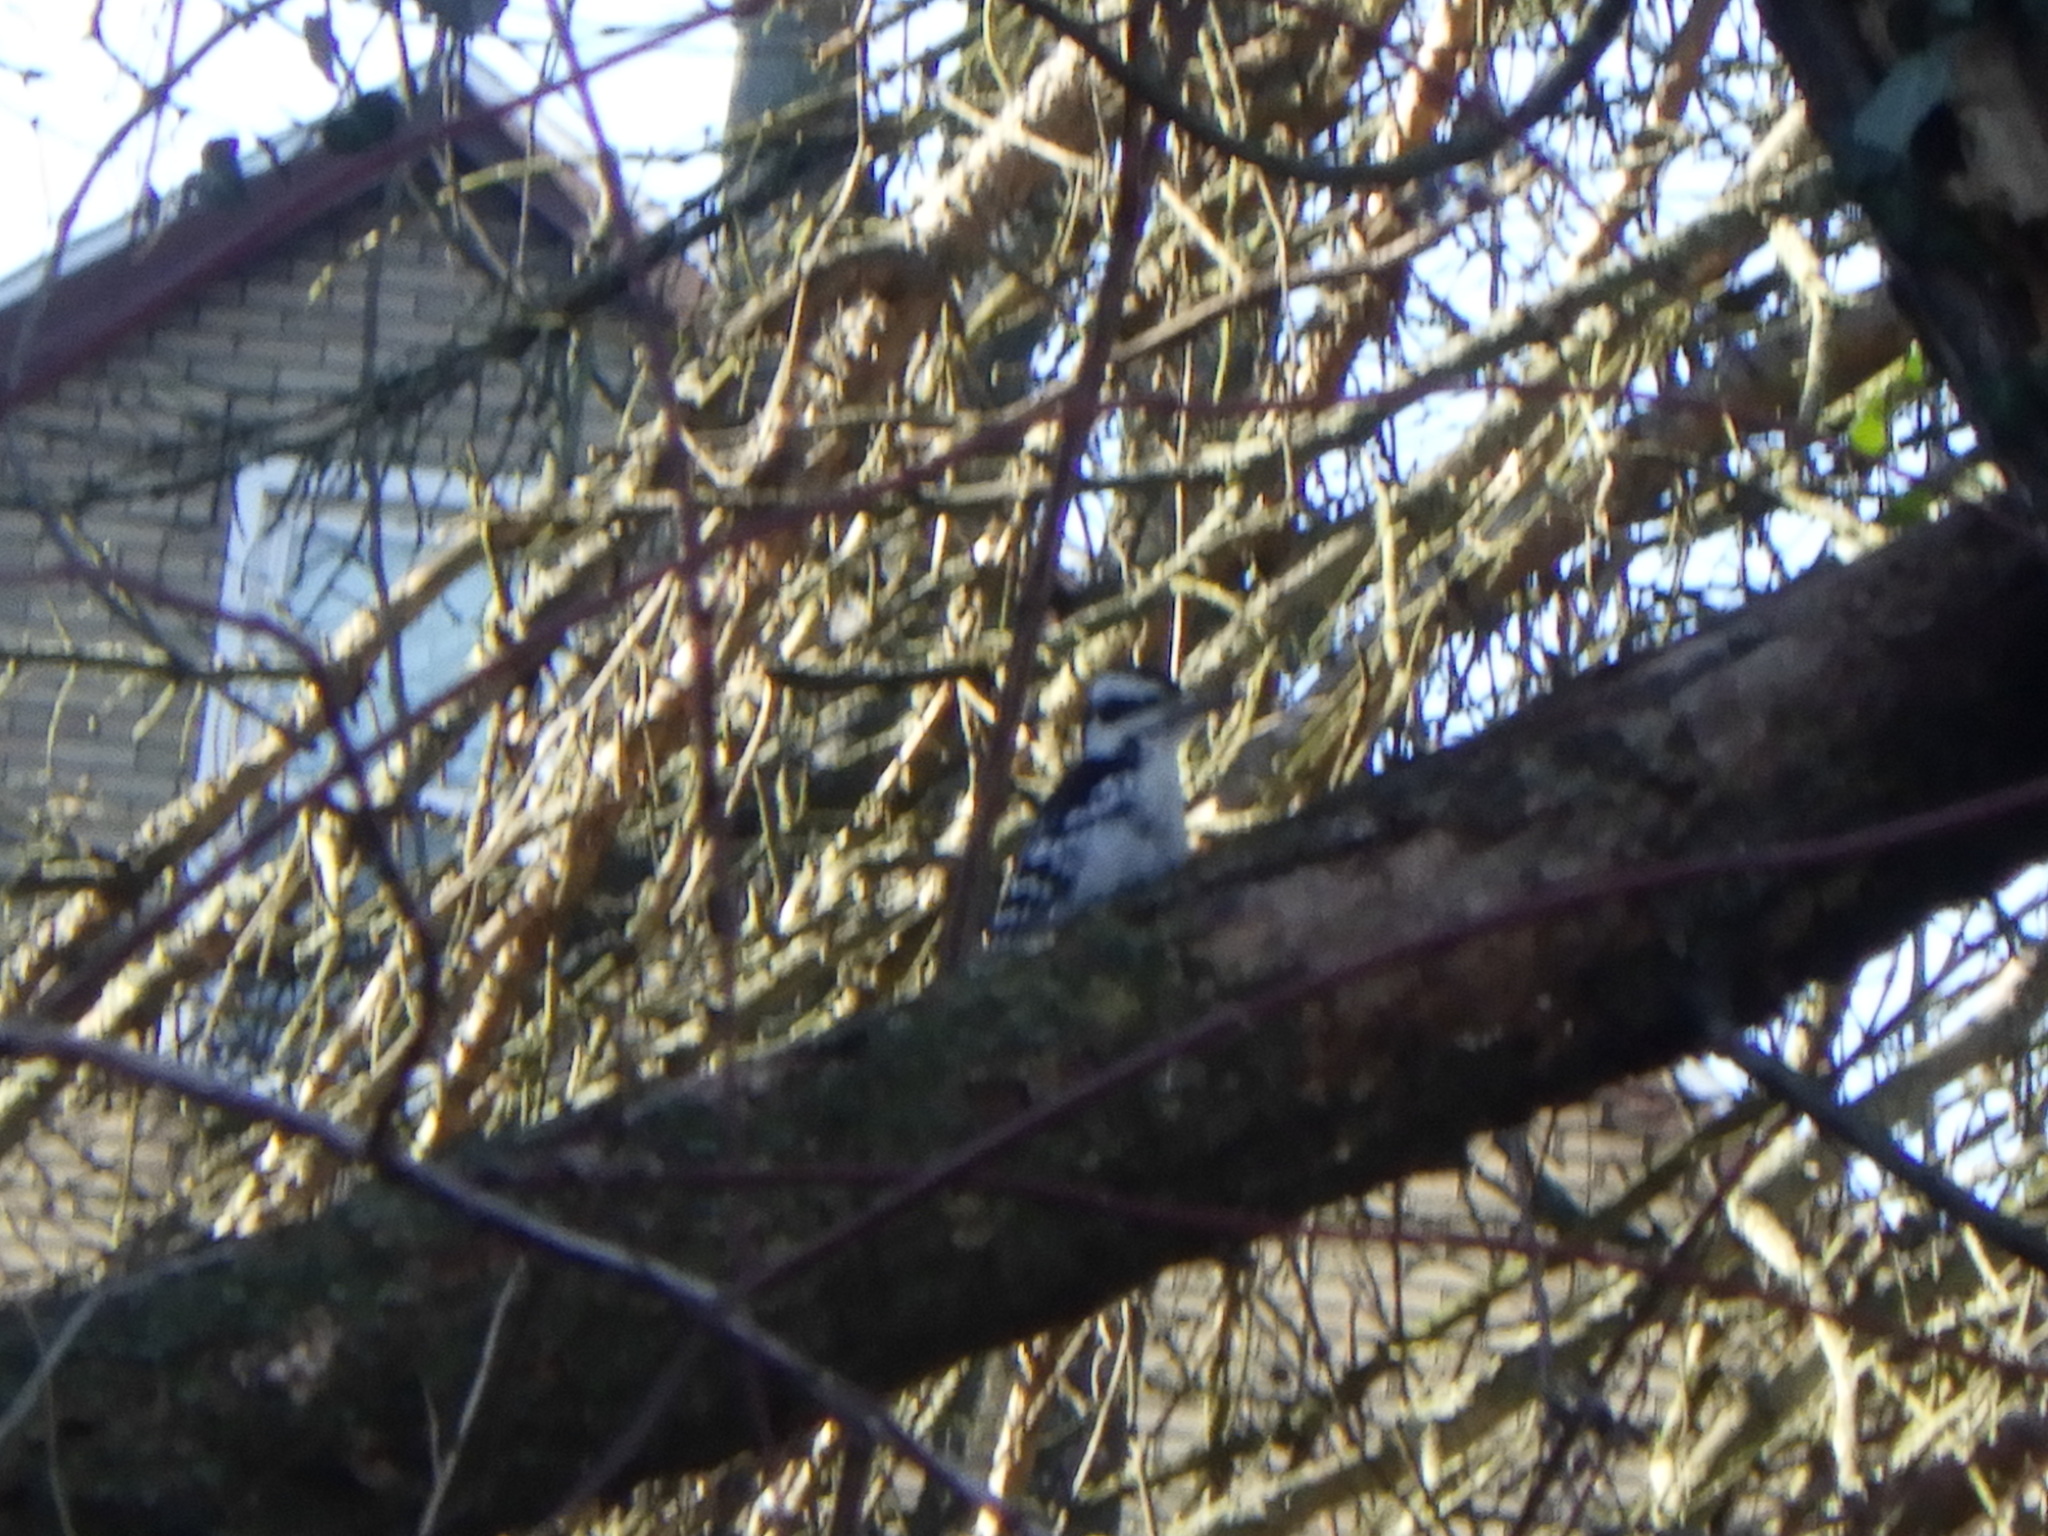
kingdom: Animalia
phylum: Chordata
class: Aves
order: Piciformes
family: Picidae
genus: Leuconotopicus
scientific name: Leuconotopicus villosus
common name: Hairy woodpecker
